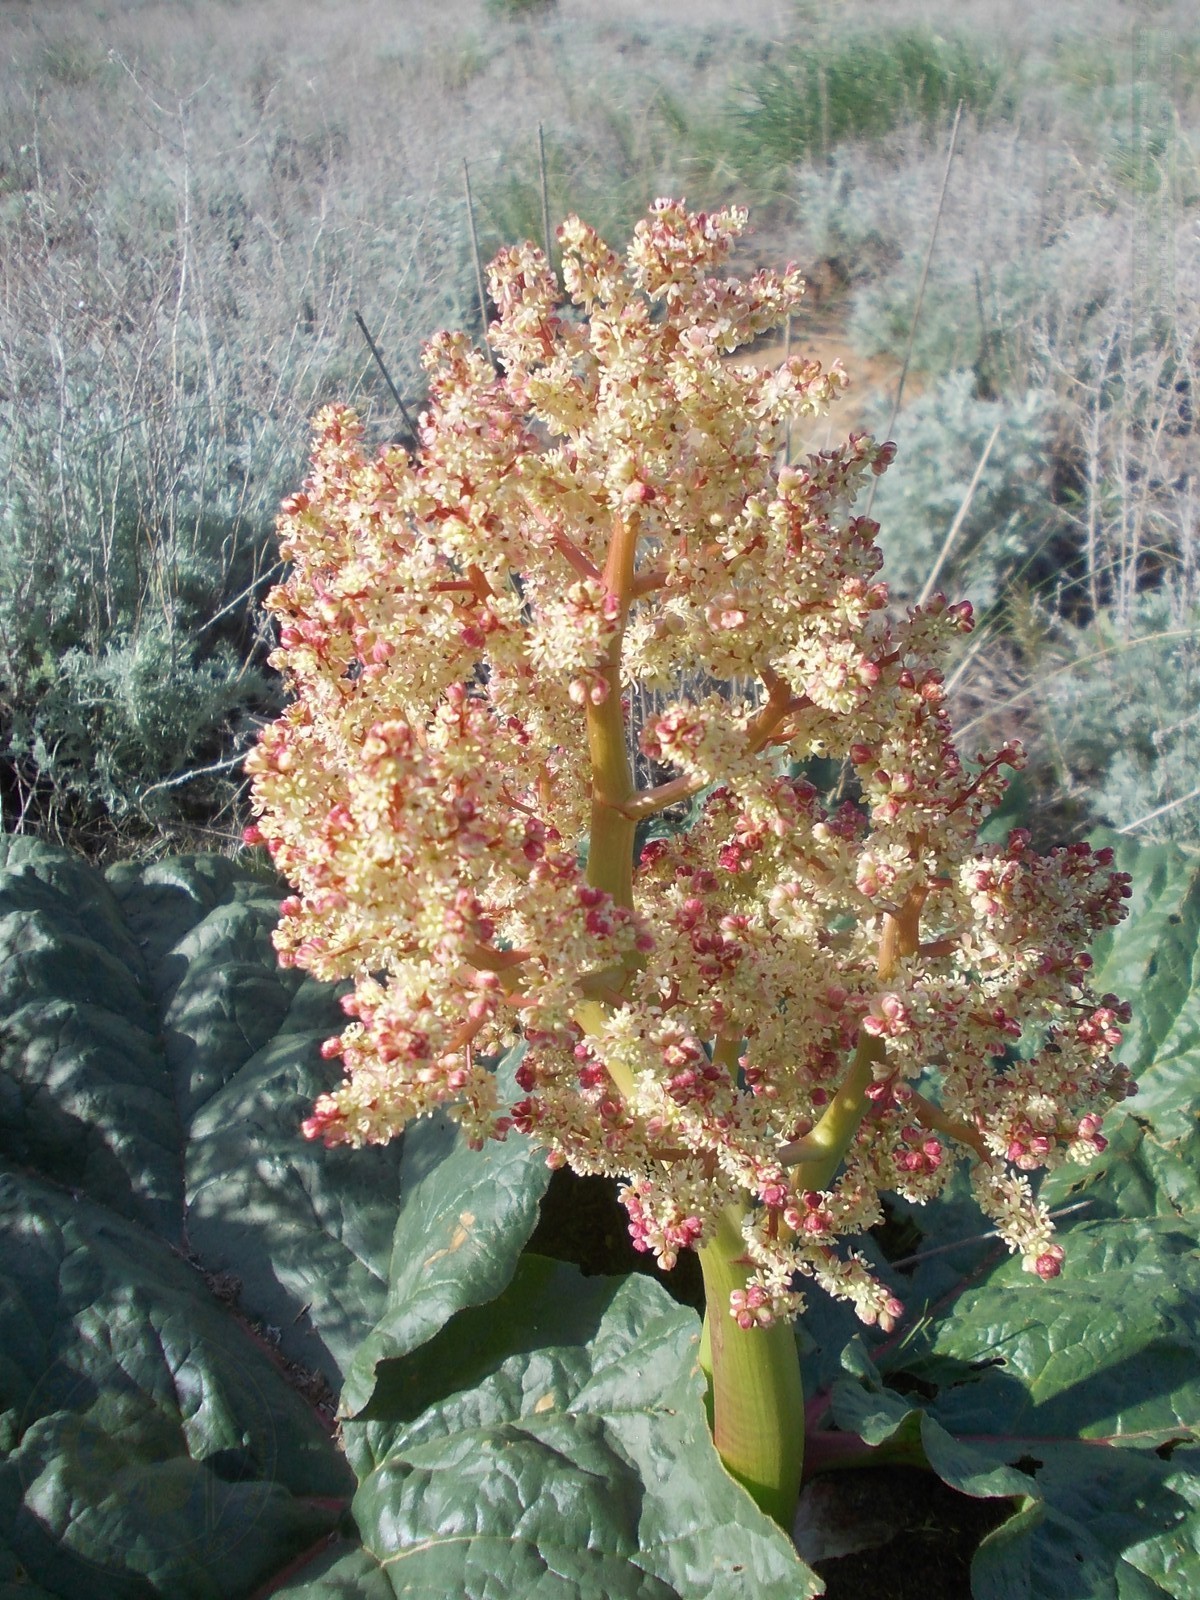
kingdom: Plantae
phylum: Tracheophyta
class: Magnoliopsida
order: Caryophyllales
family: Polygonaceae
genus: Rheum
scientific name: Rheum tataricum
